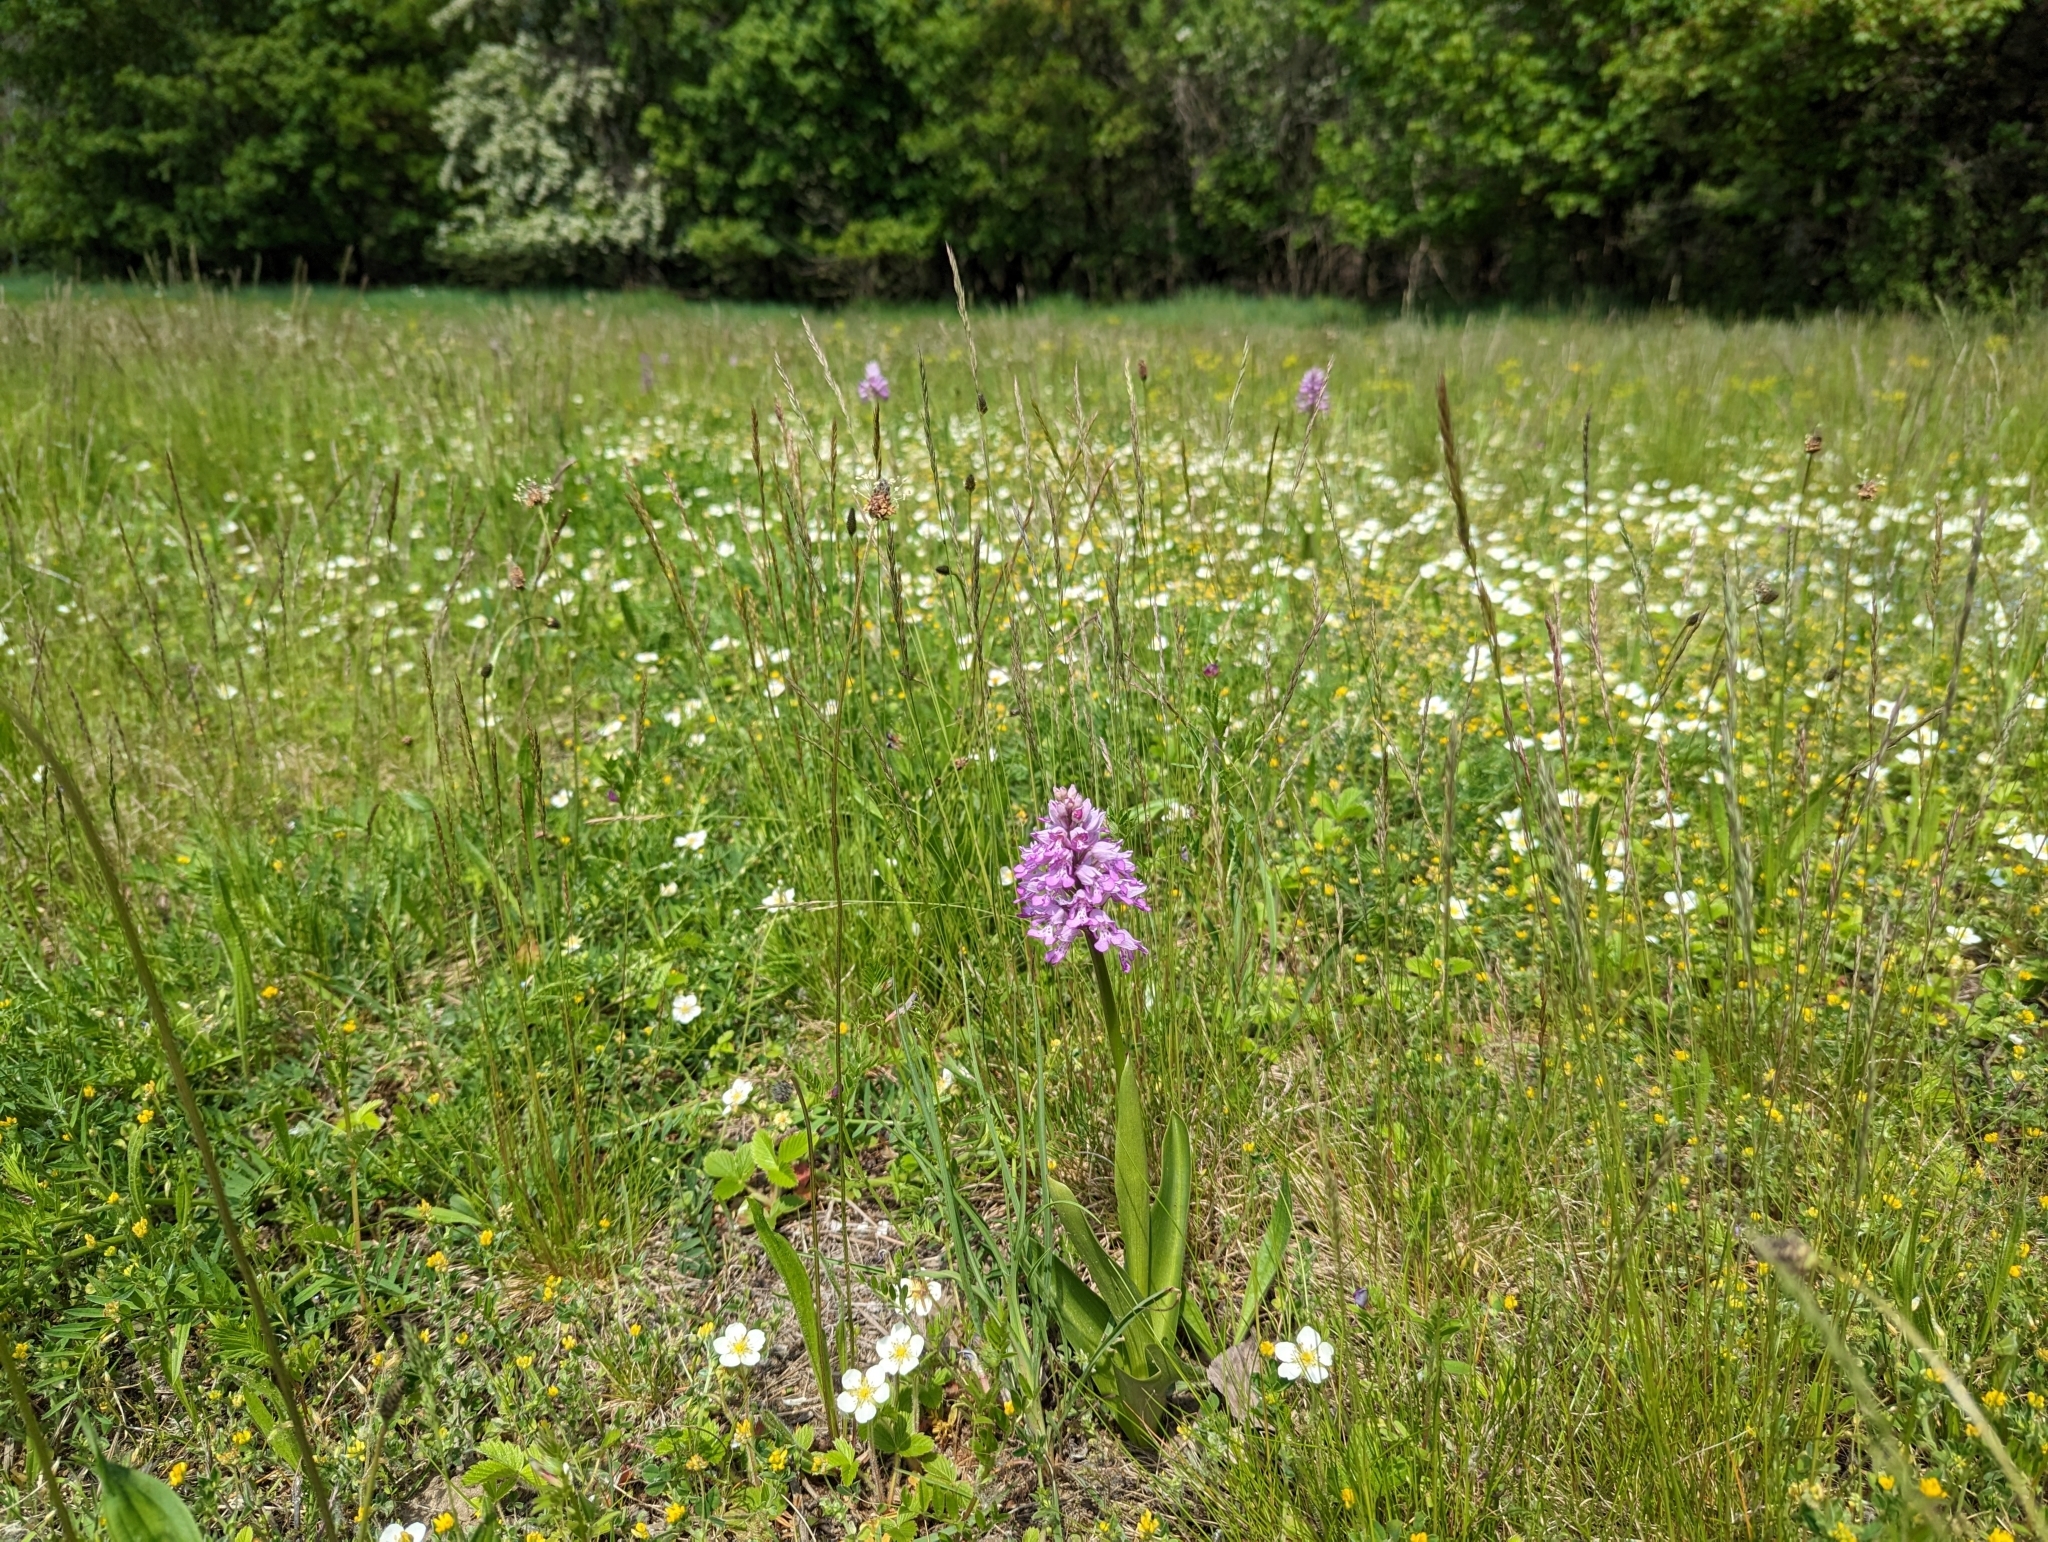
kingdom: Plantae
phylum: Tracheophyta
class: Liliopsida
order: Asparagales
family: Orchidaceae
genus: Orchis
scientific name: Orchis militaris
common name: Military orchid
